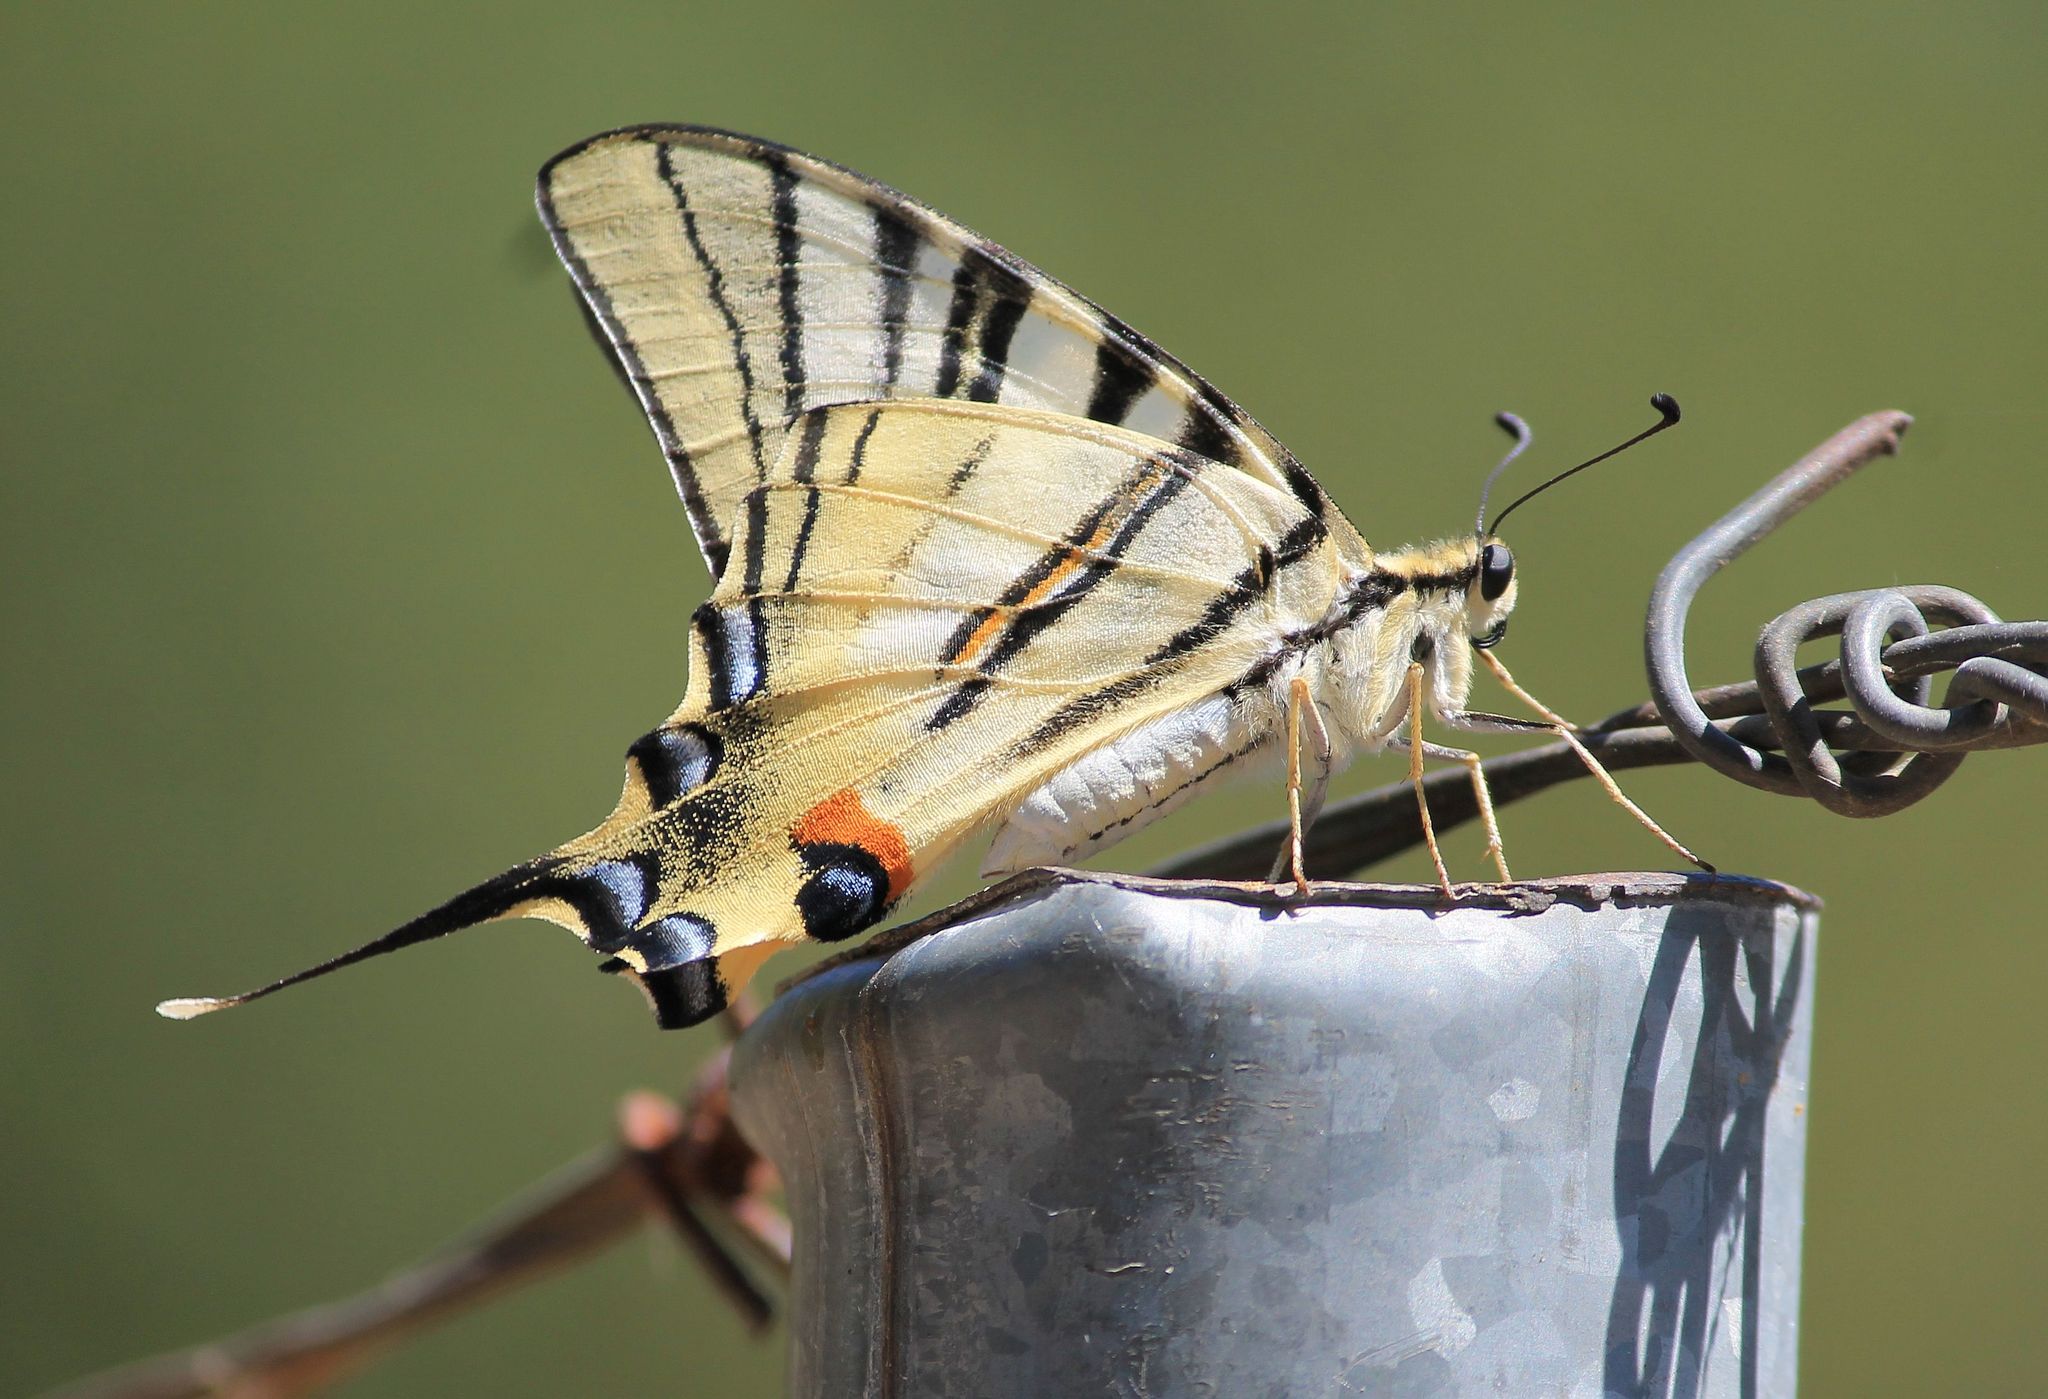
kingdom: Animalia
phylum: Arthropoda
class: Insecta
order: Lepidoptera
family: Papilionidae
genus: Iphiclides
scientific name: Iphiclides podalirius
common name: Scarce swallowtail
